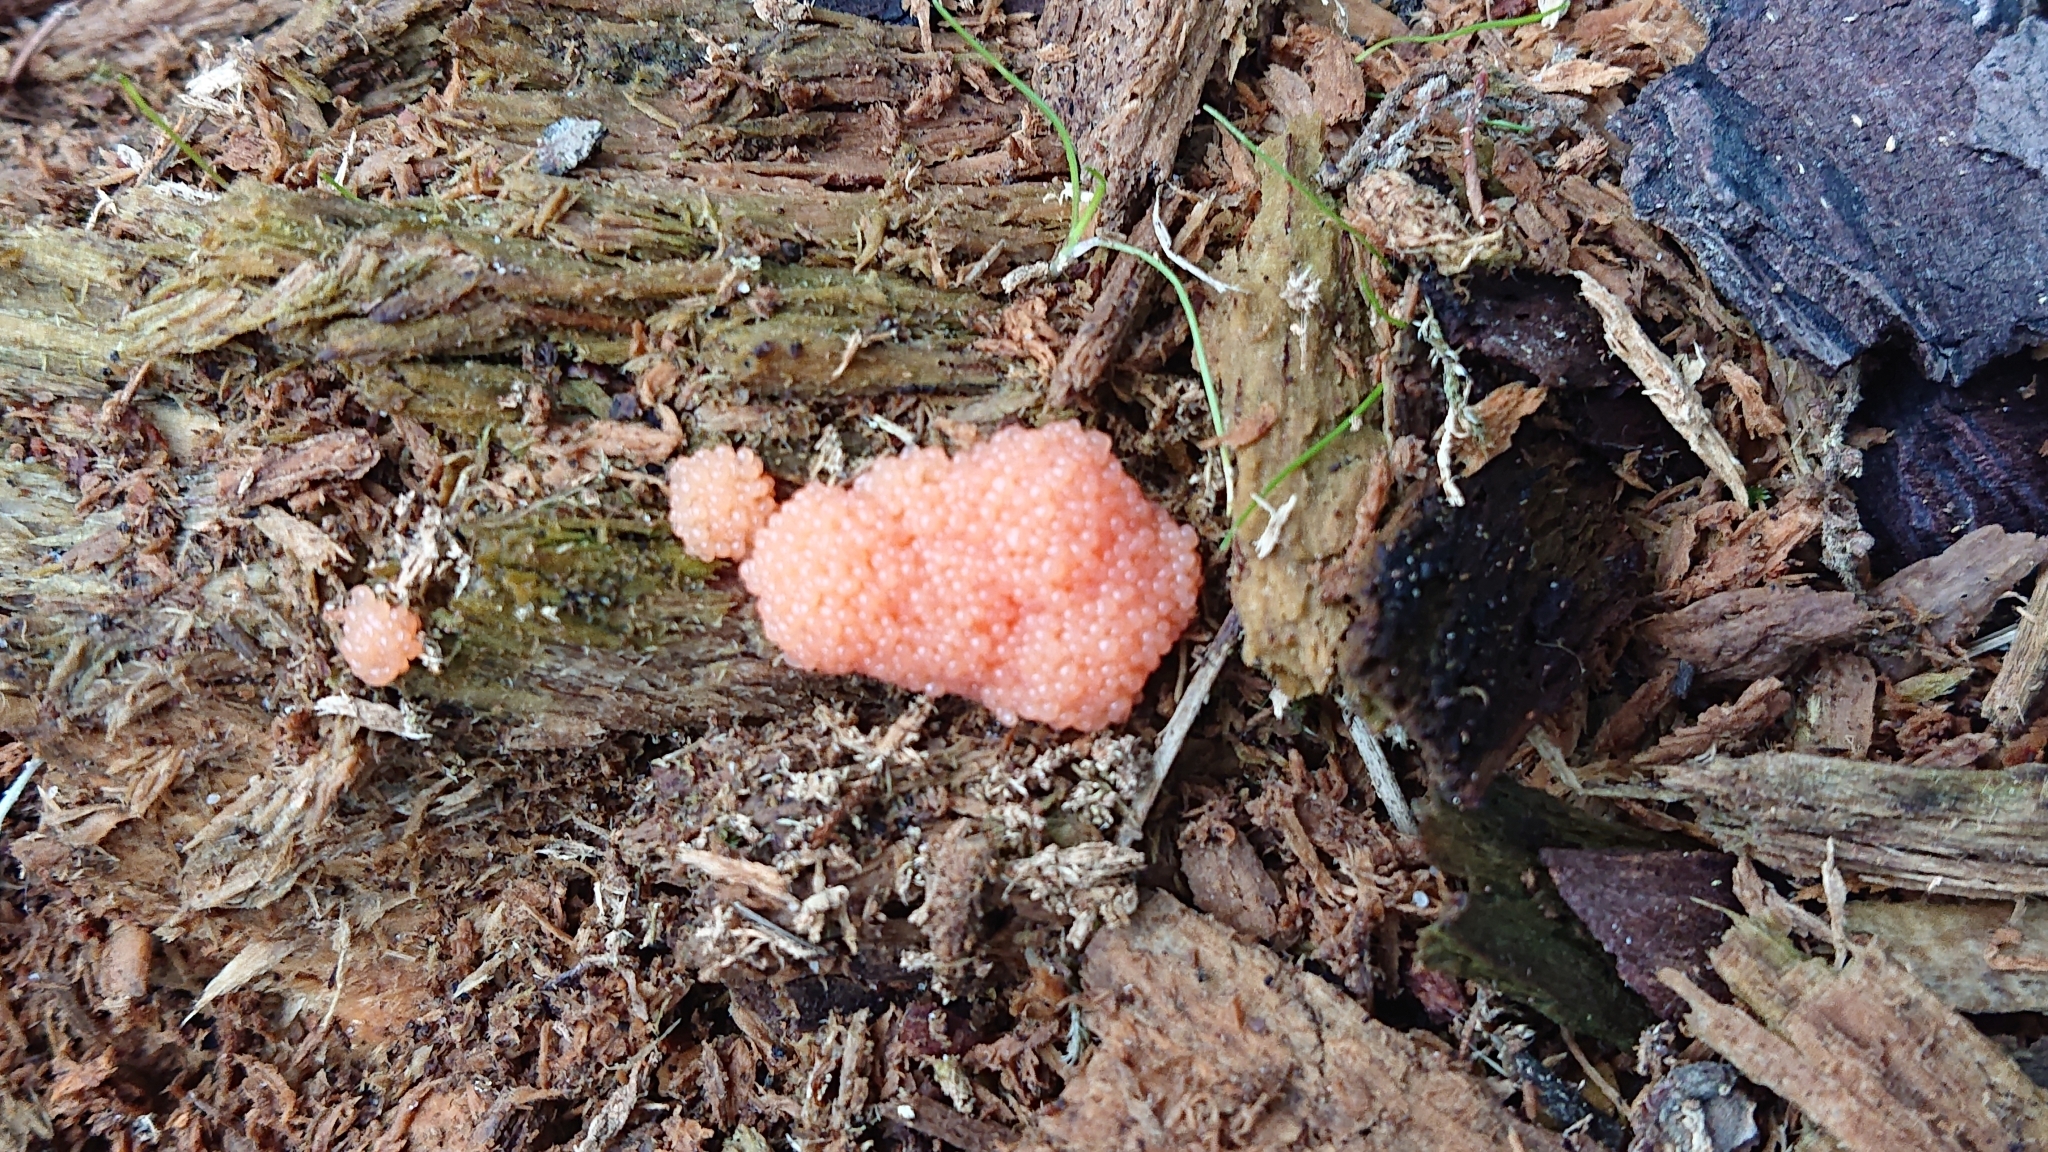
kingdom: Protozoa
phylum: Mycetozoa
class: Myxomycetes
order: Cribrariales
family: Tubiferaceae
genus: Tubifera
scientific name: Tubifera ferruginosa
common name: Red raspberry slime mold
